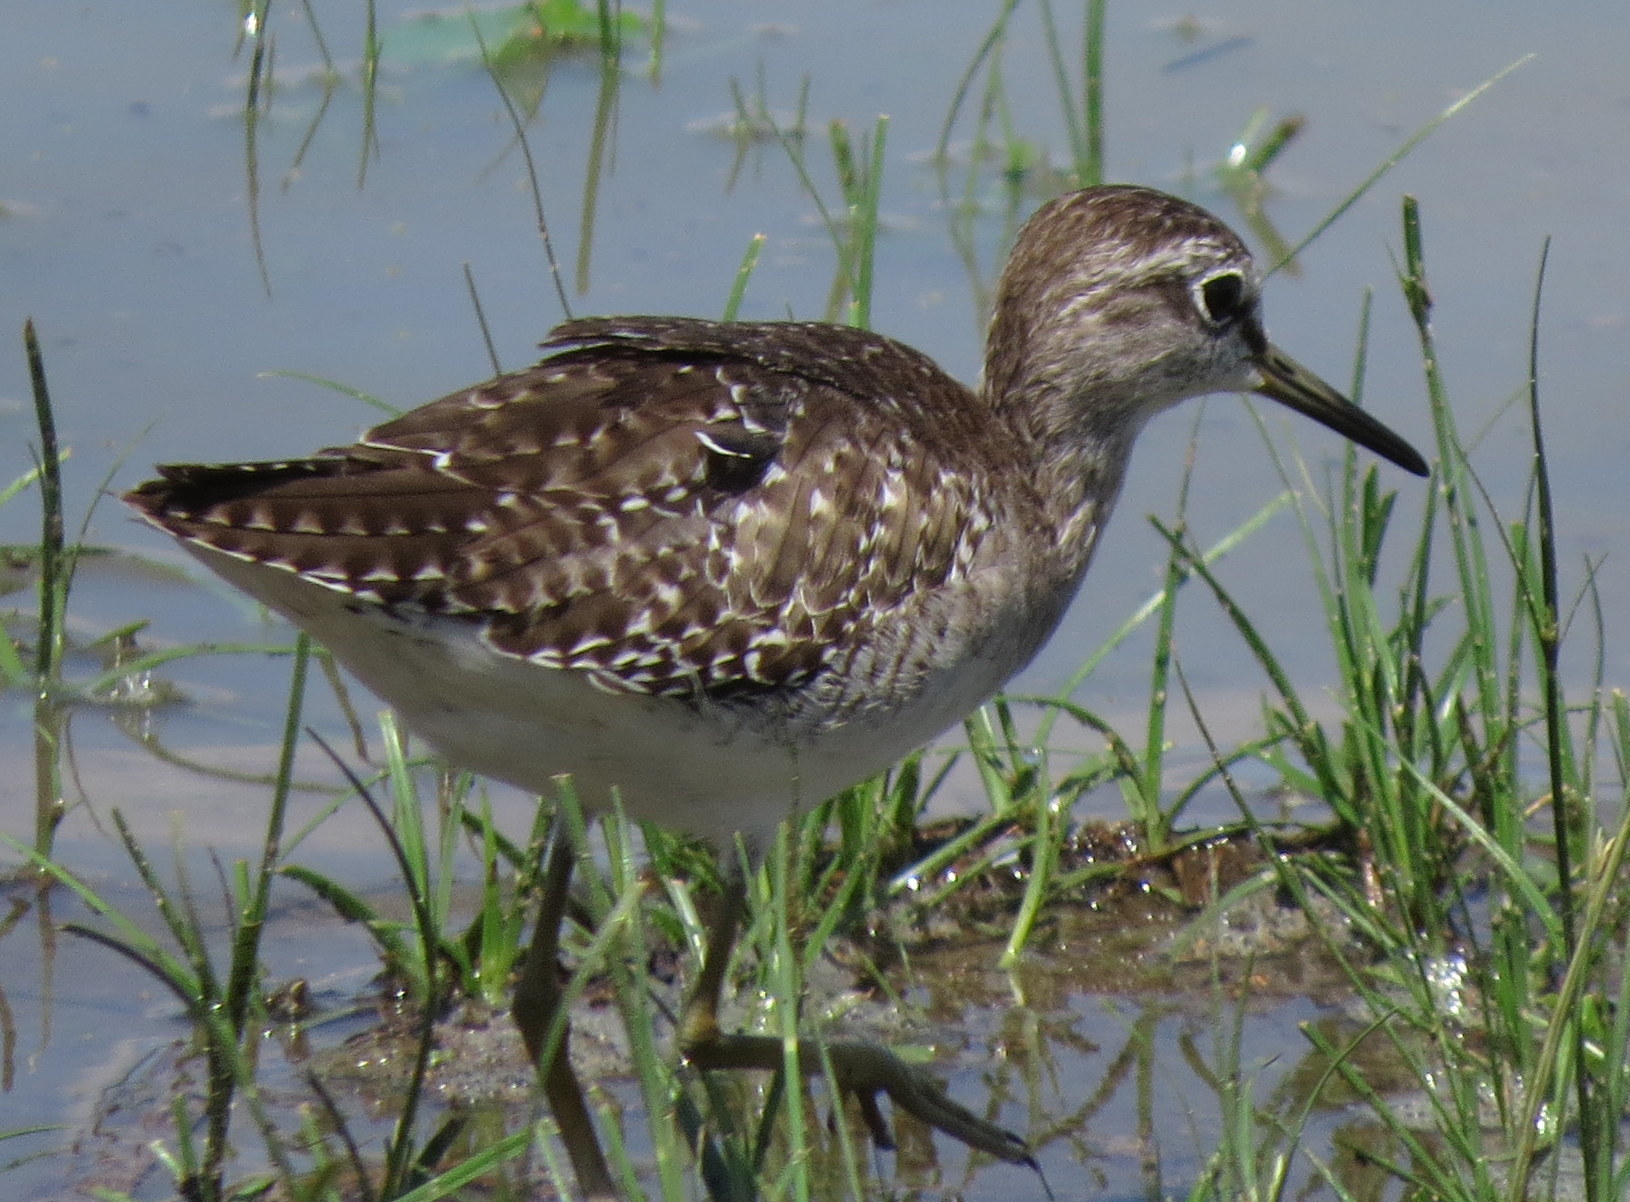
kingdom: Animalia
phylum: Chordata
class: Aves
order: Charadriiformes
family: Scolopacidae
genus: Tringa
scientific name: Tringa glareola
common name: Wood sandpiper
